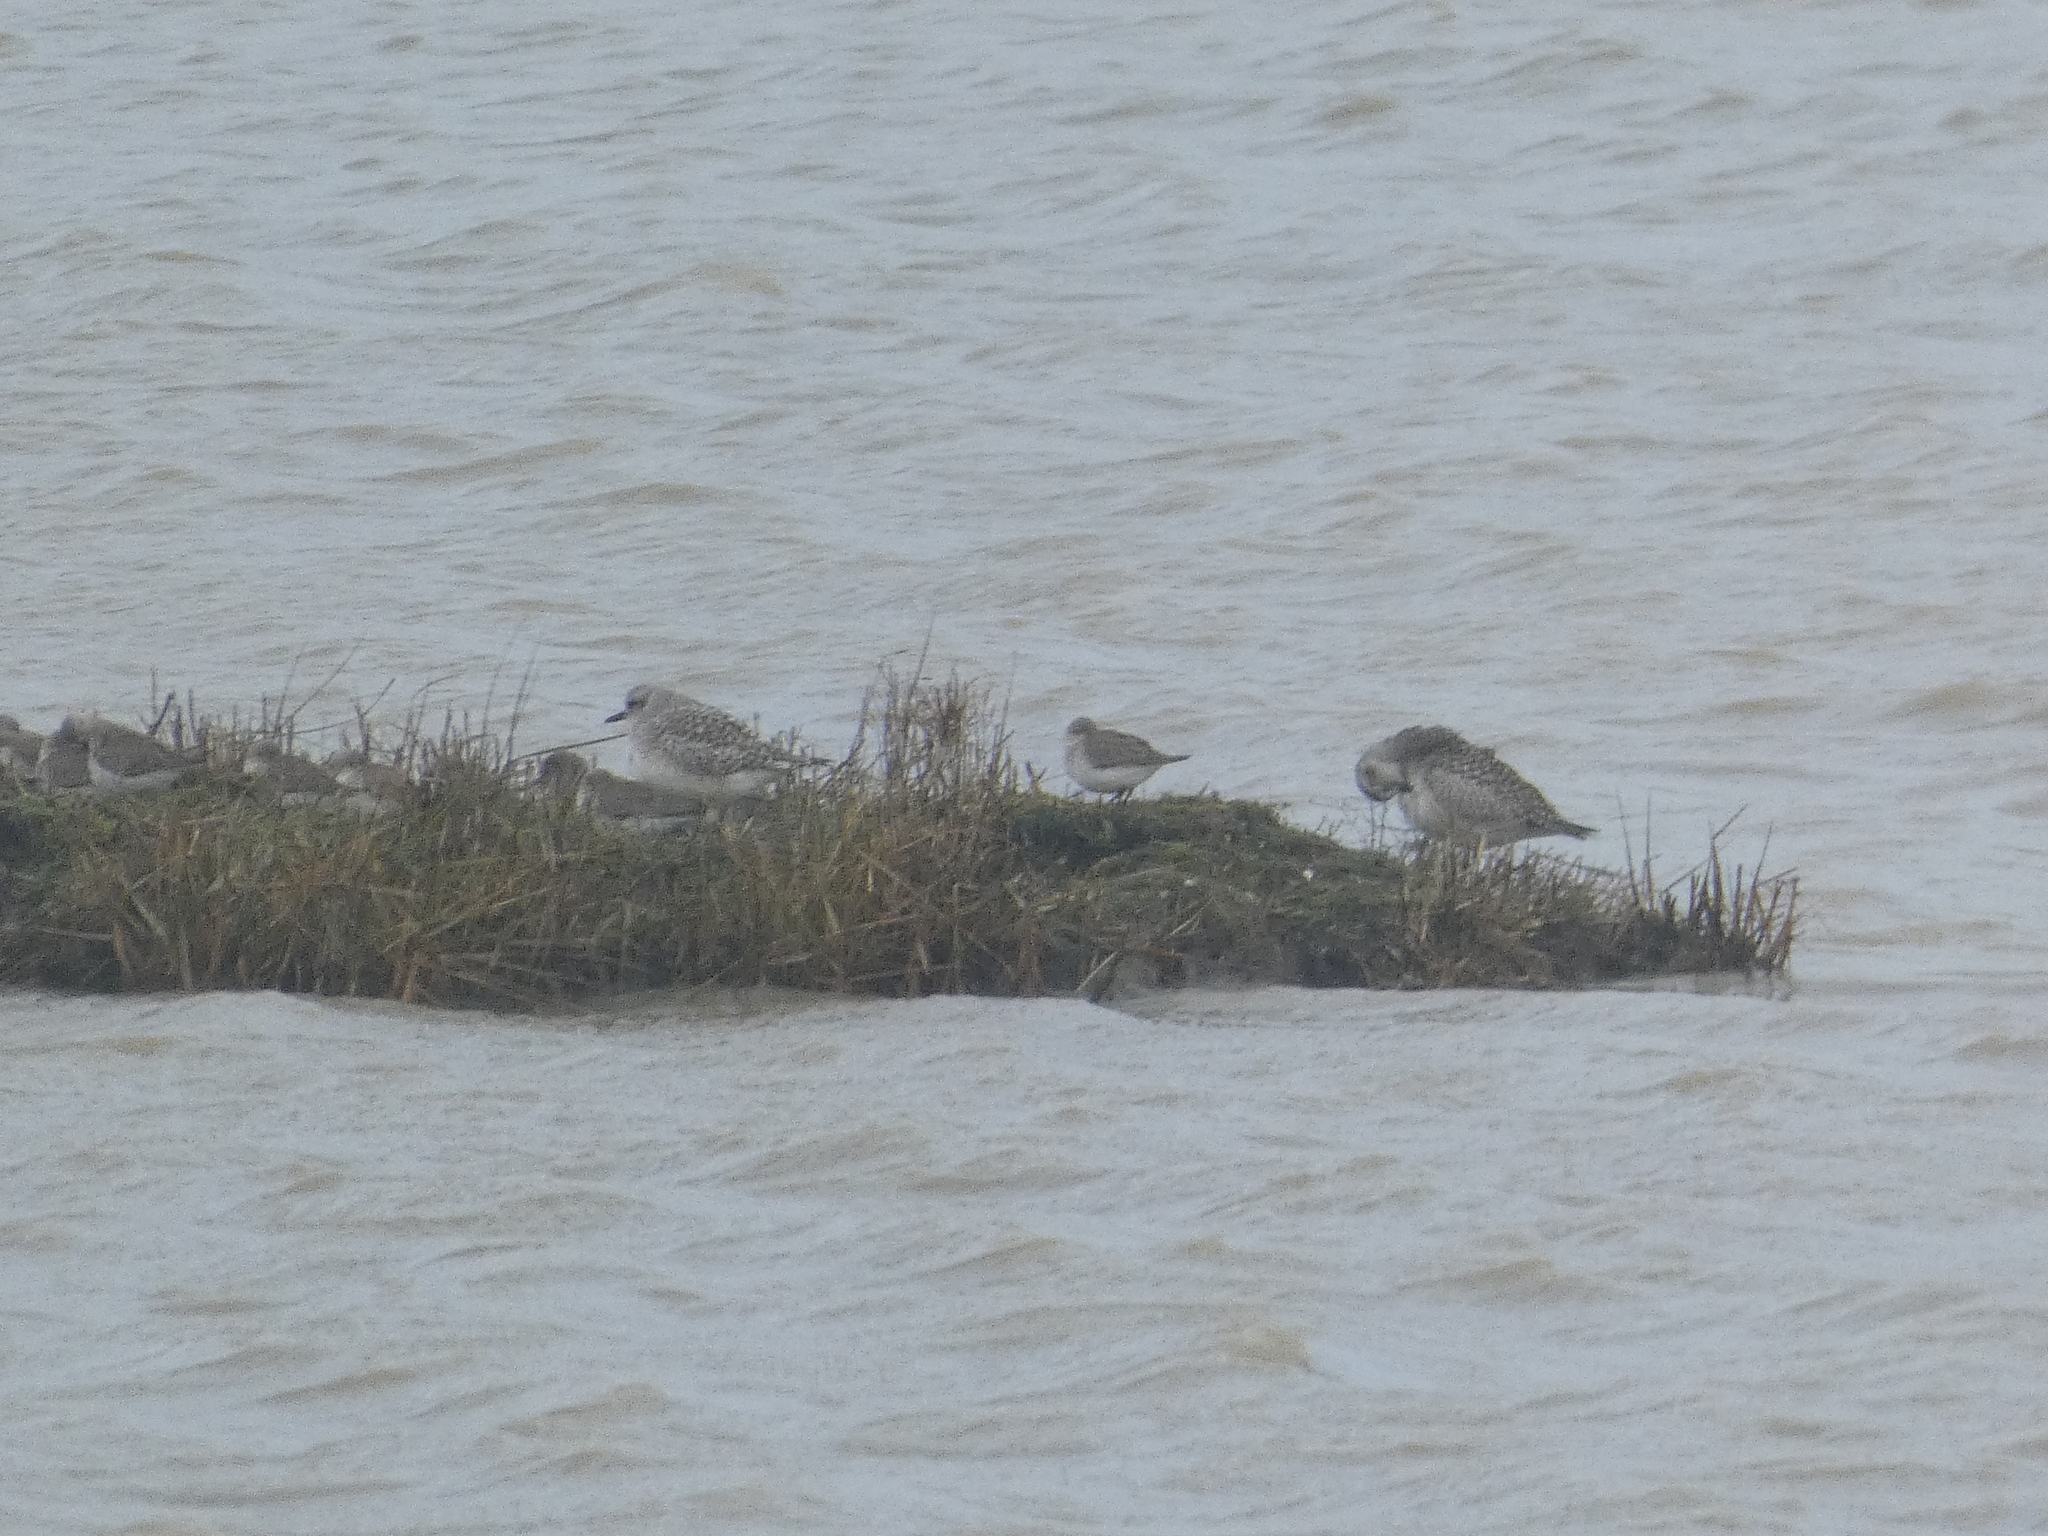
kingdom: Animalia
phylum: Chordata
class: Aves
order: Charadriiformes
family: Charadriidae
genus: Pluvialis
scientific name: Pluvialis squatarola
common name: Grey plover
